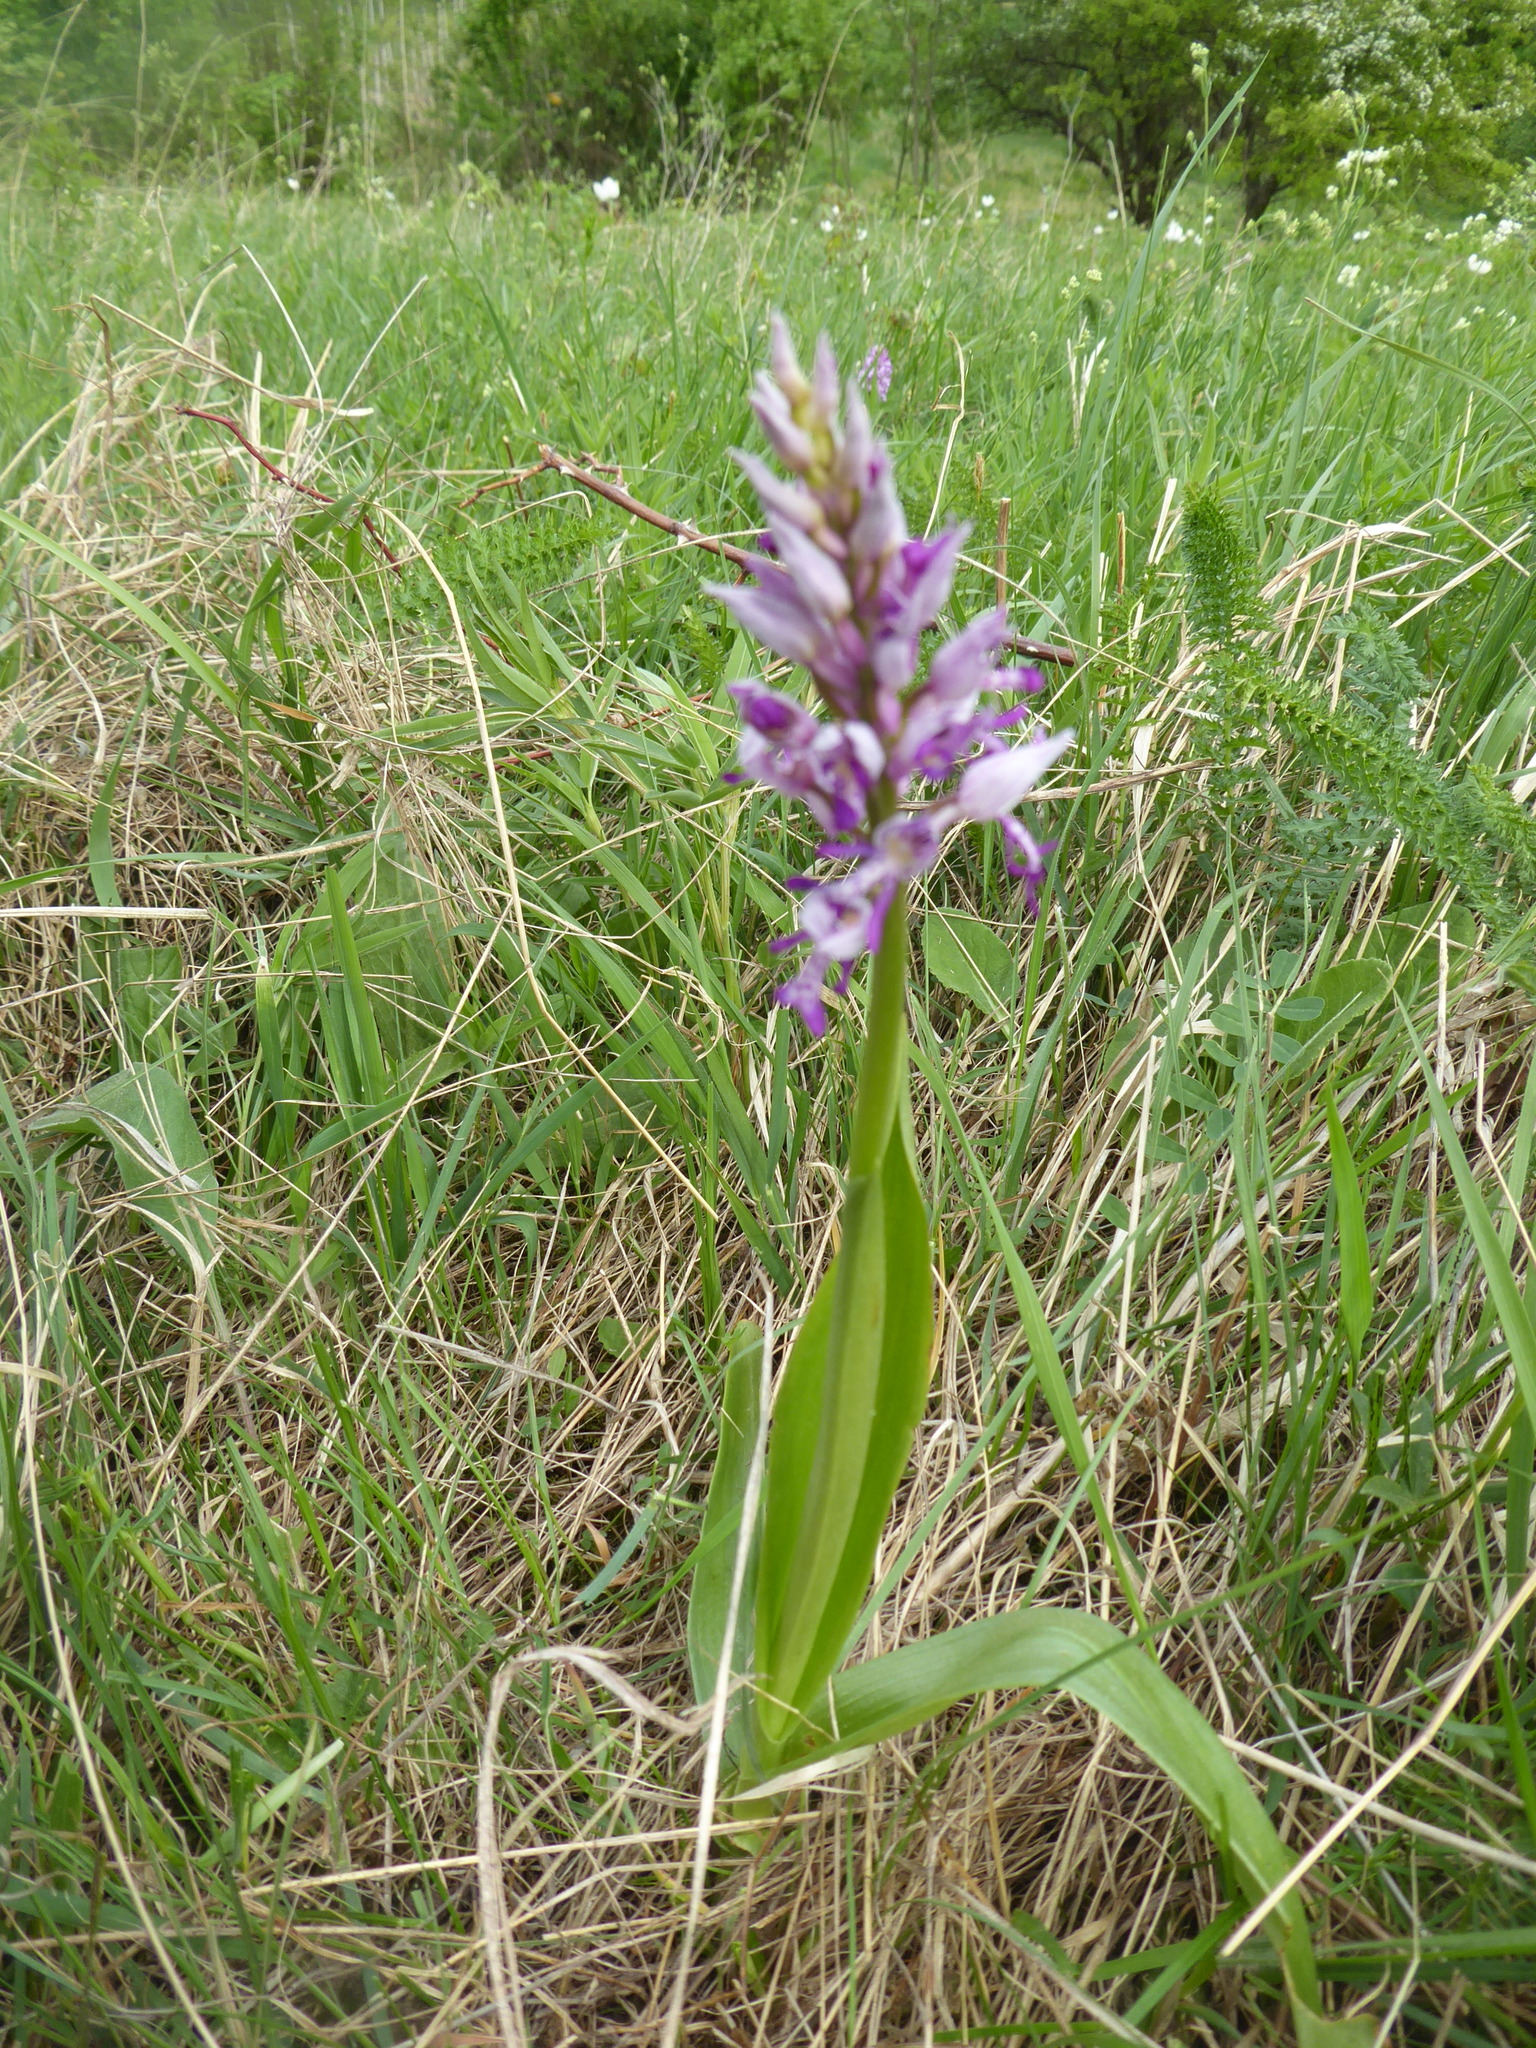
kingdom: Plantae
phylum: Tracheophyta
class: Liliopsida
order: Asparagales
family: Orchidaceae
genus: Orchis
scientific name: Orchis militaris
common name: Military orchid
